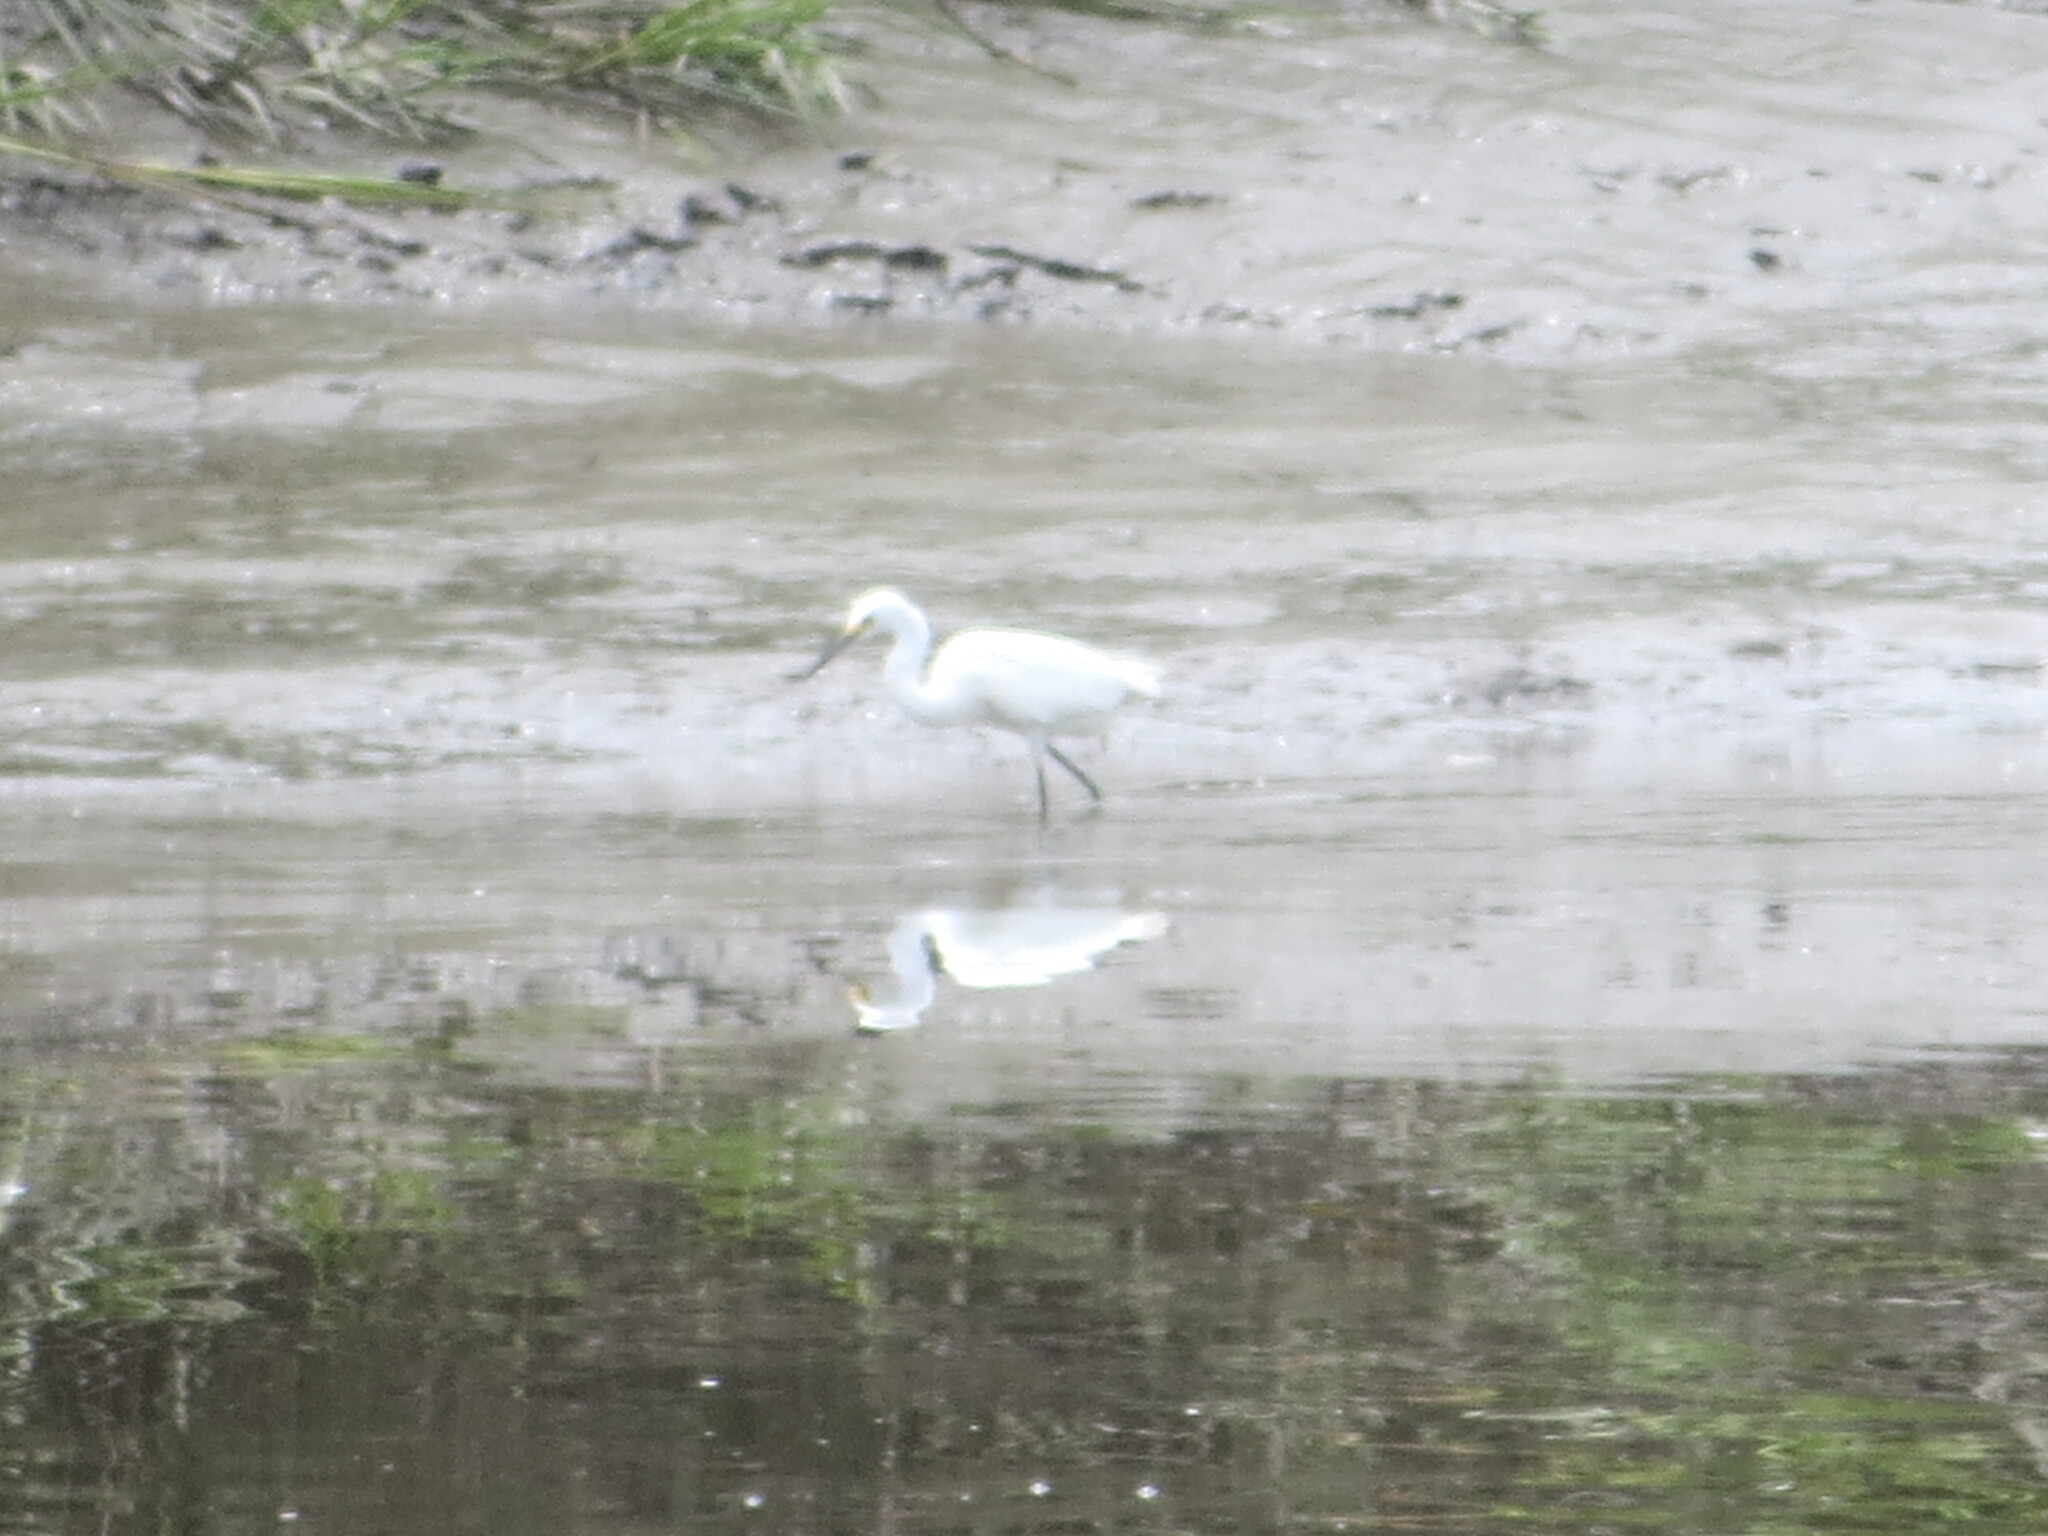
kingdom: Animalia
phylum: Chordata
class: Aves
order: Pelecaniformes
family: Ardeidae
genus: Egretta
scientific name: Egretta thula
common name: Snowy egret
